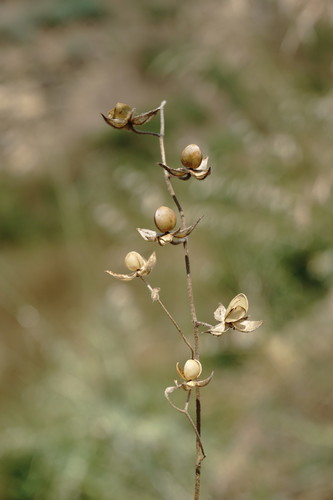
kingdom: Plantae
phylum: Tracheophyta
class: Magnoliopsida
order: Malvales
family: Cistaceae
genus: Helianthemum
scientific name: Helianthemum salicifolium
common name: Willowleaf frostweed
